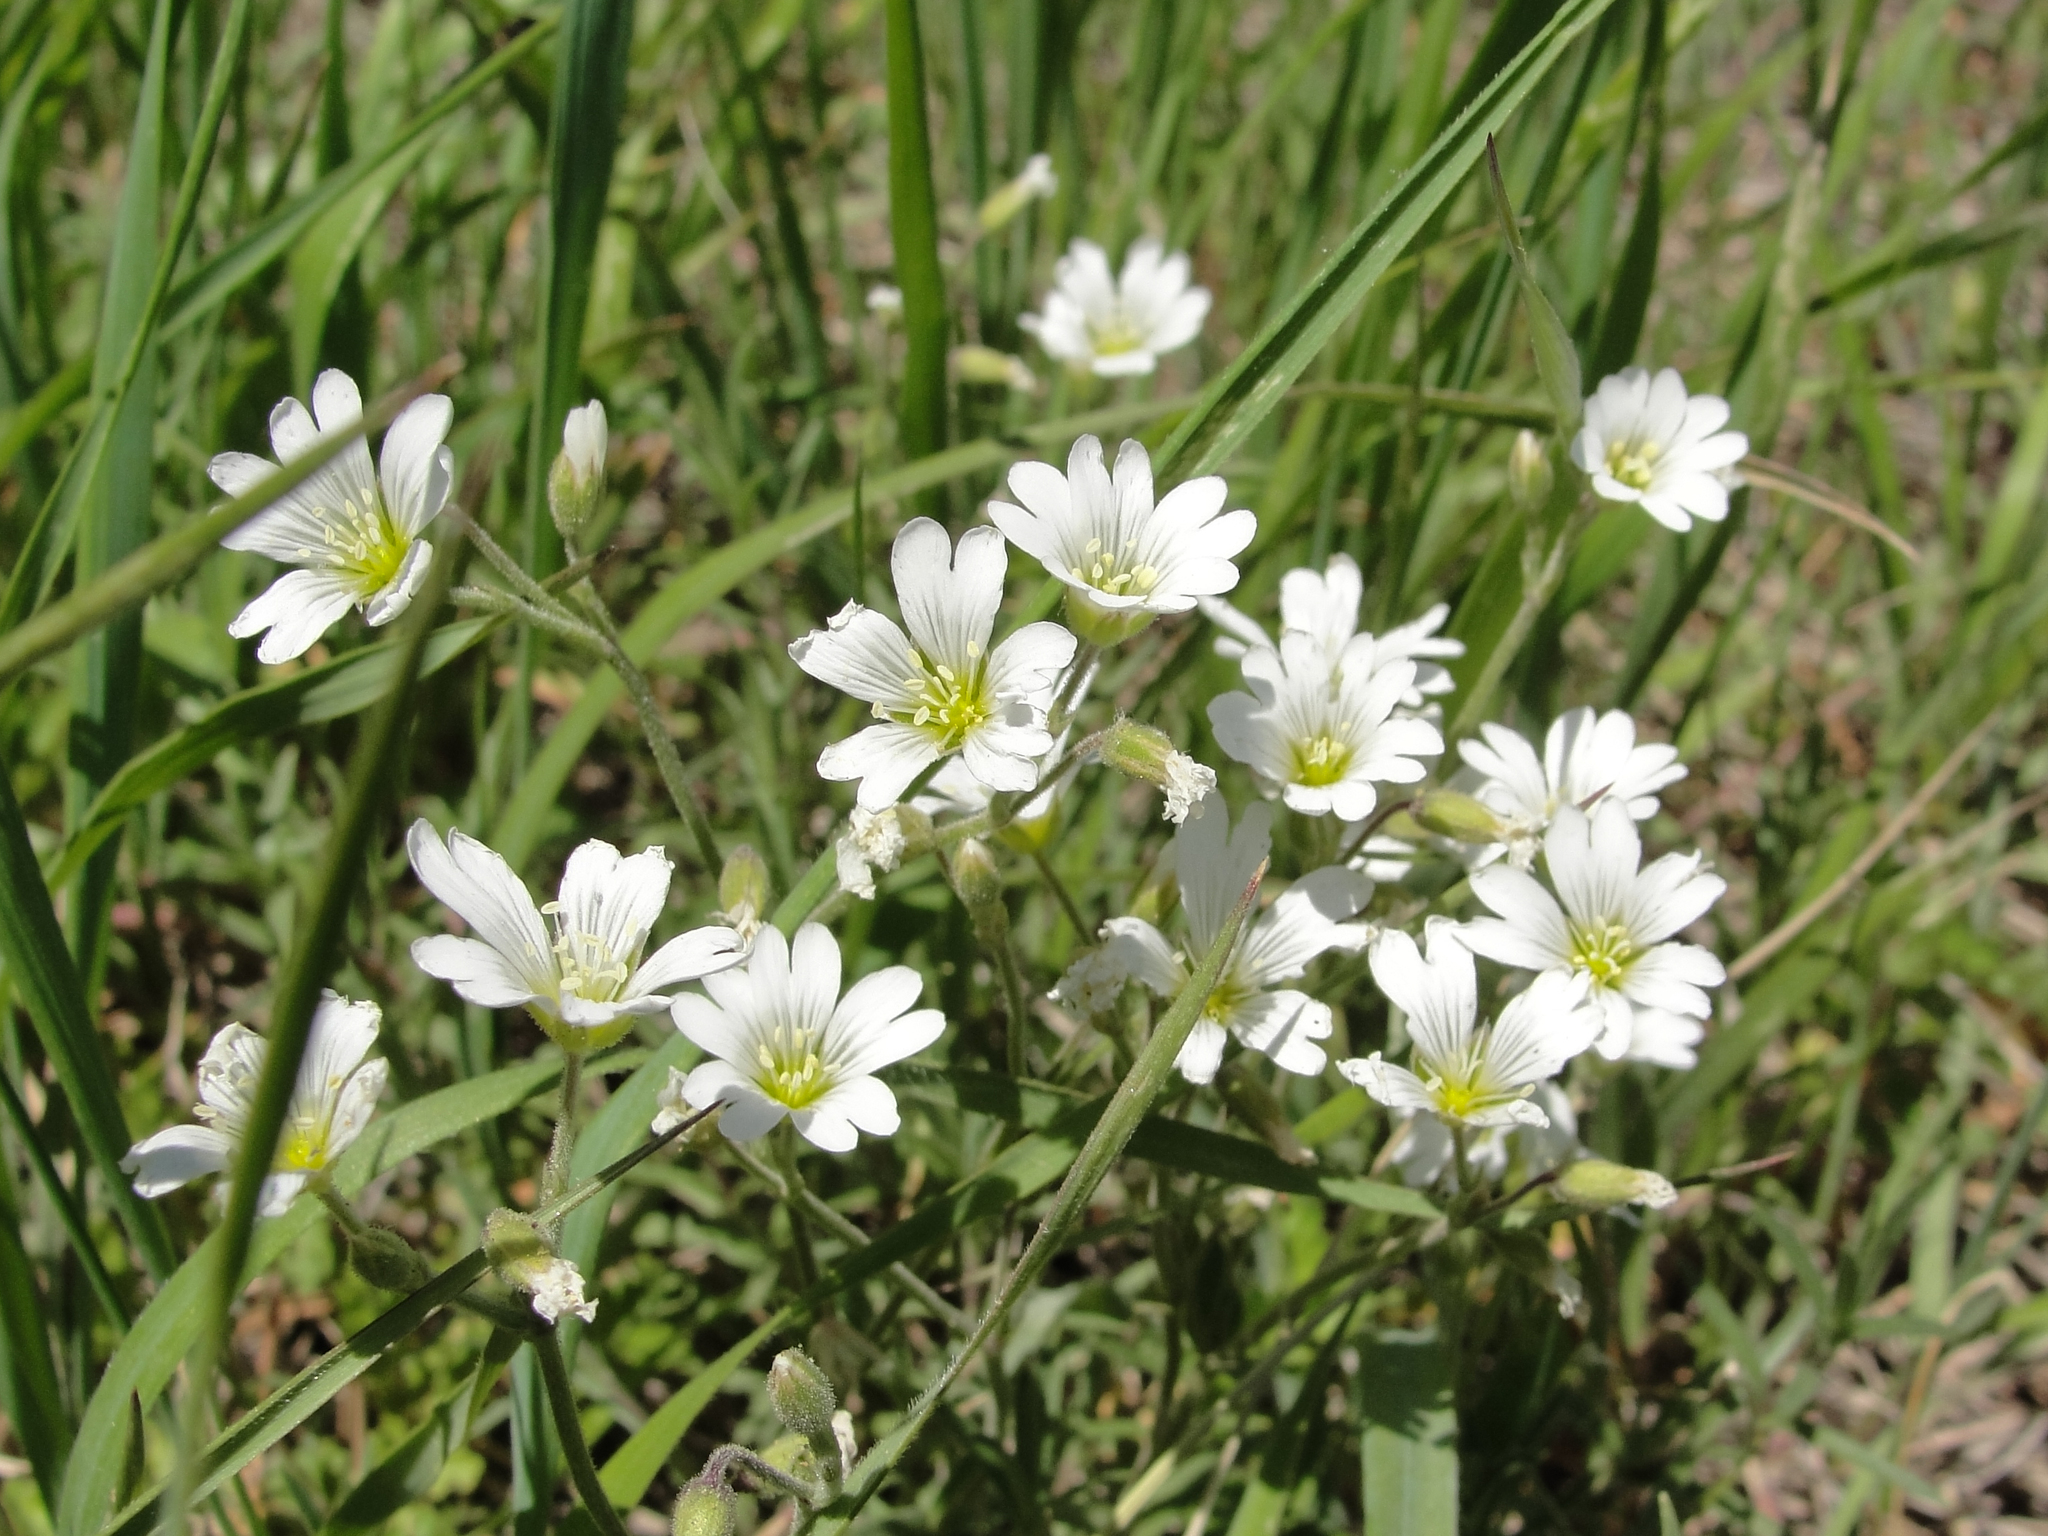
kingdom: Plantae
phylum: Tracheophyta
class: Magnoliopsida
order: Caryophyllales
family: Caryophyllaceae
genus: Cerastium
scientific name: Cerastium arvense
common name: Field mouse-ear
